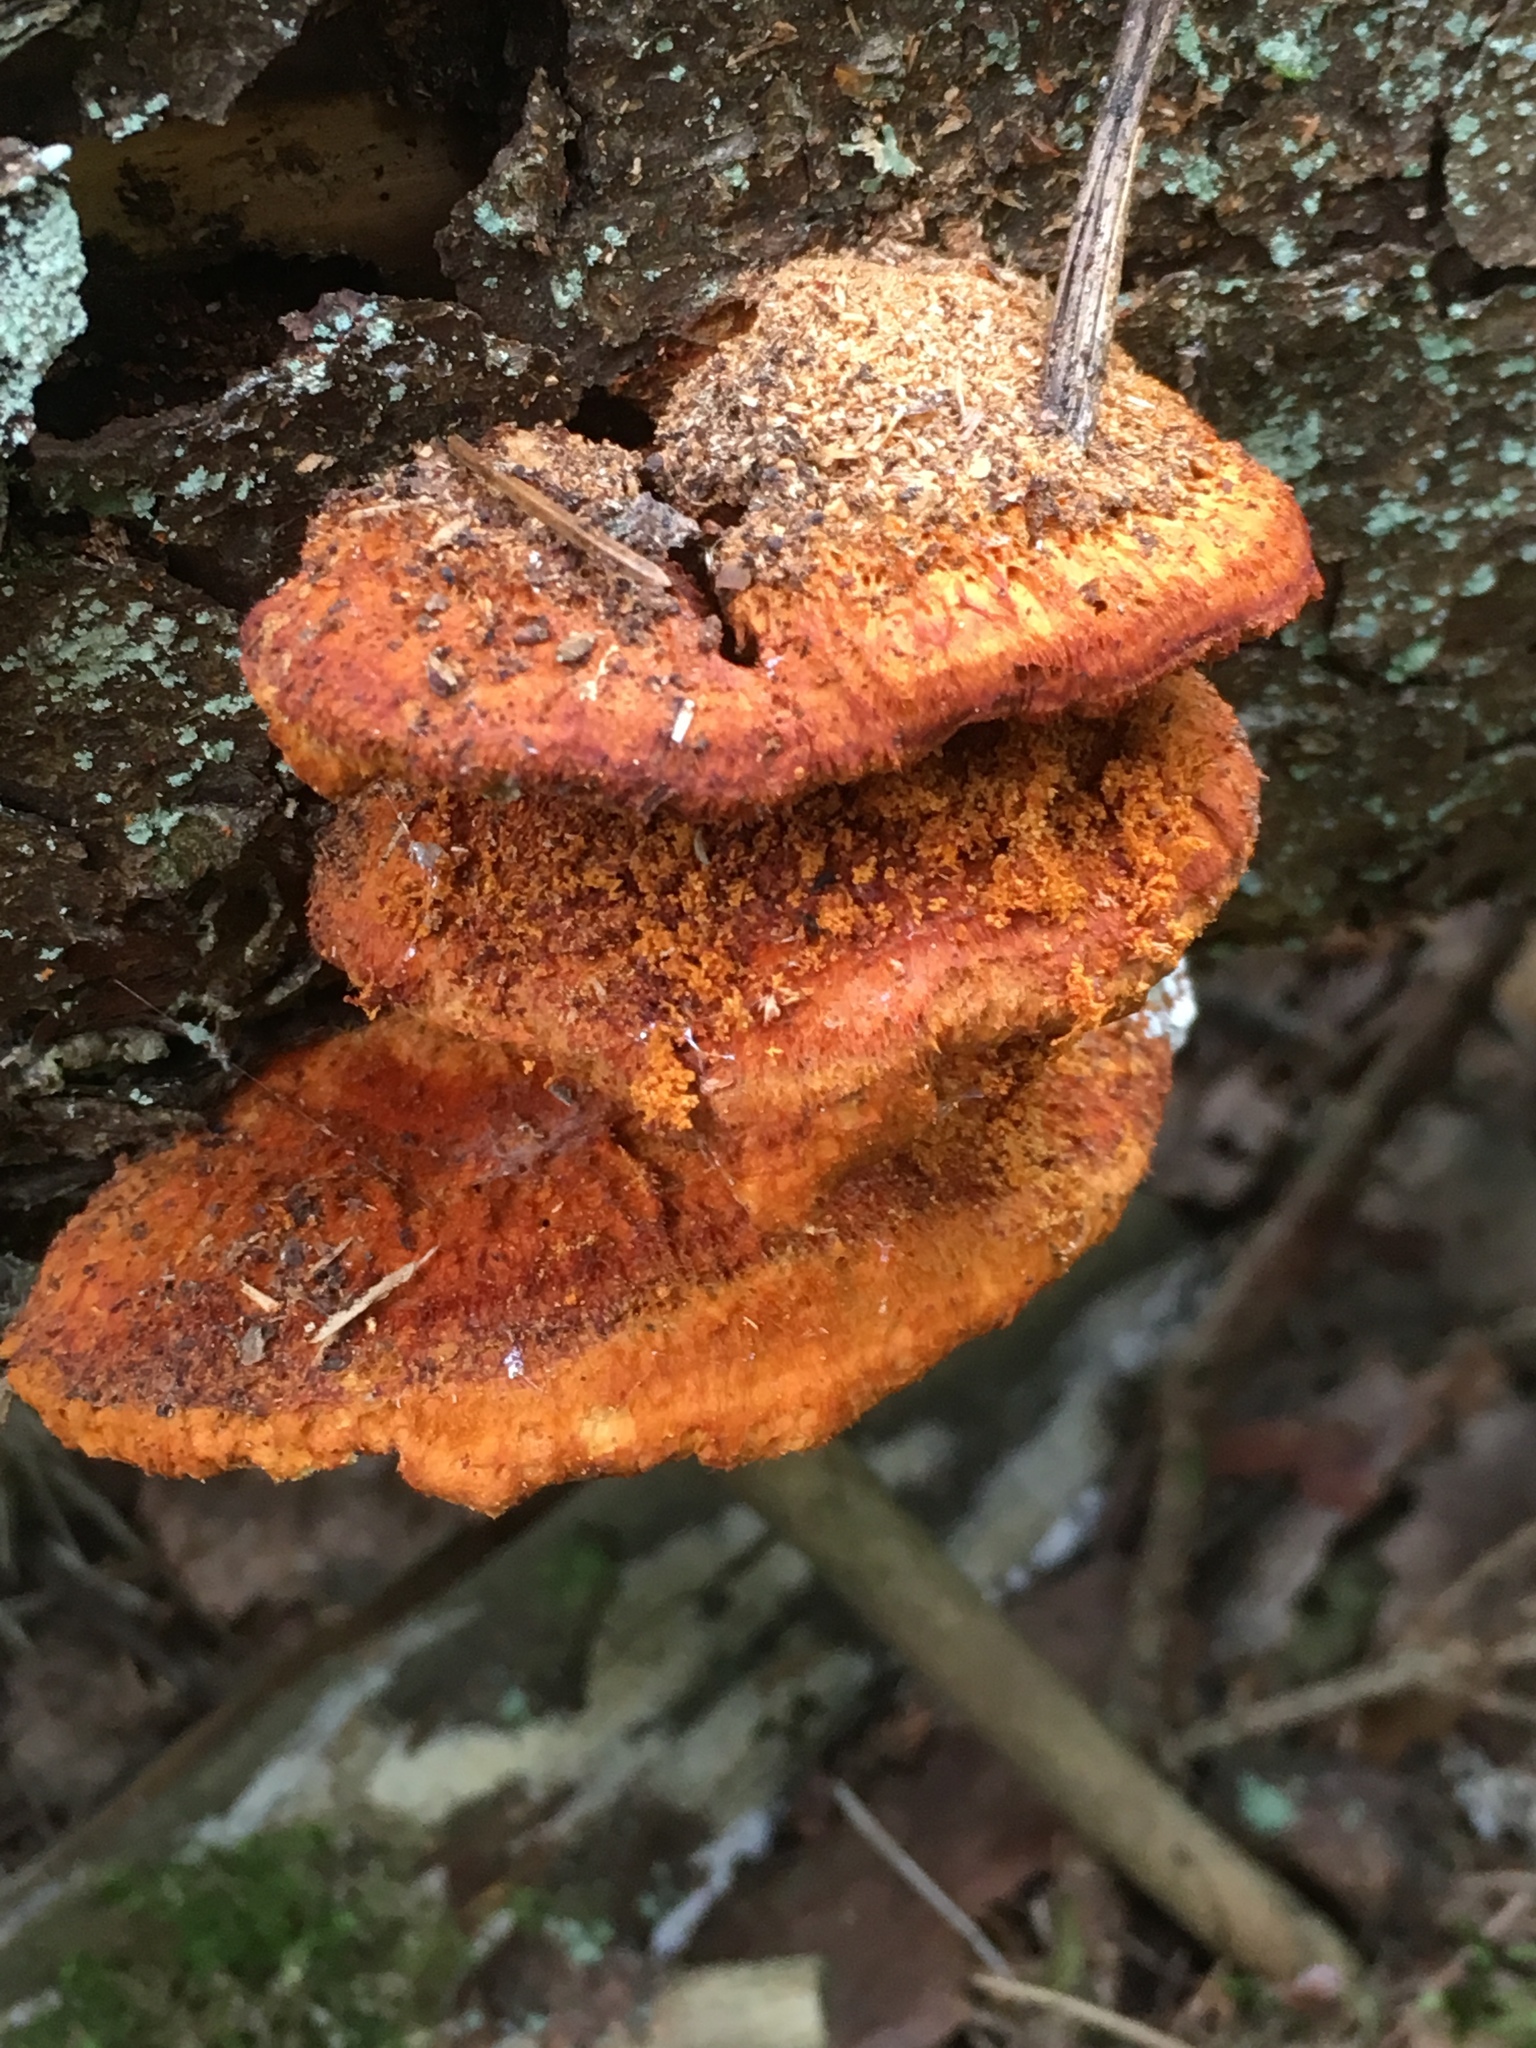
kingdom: Fungi
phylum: Basidiomycota
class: Agaricomycetes
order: Polyporales
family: Pycnoporellaceae
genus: Pycnoporellus
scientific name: Pycnoporellus fulgens
